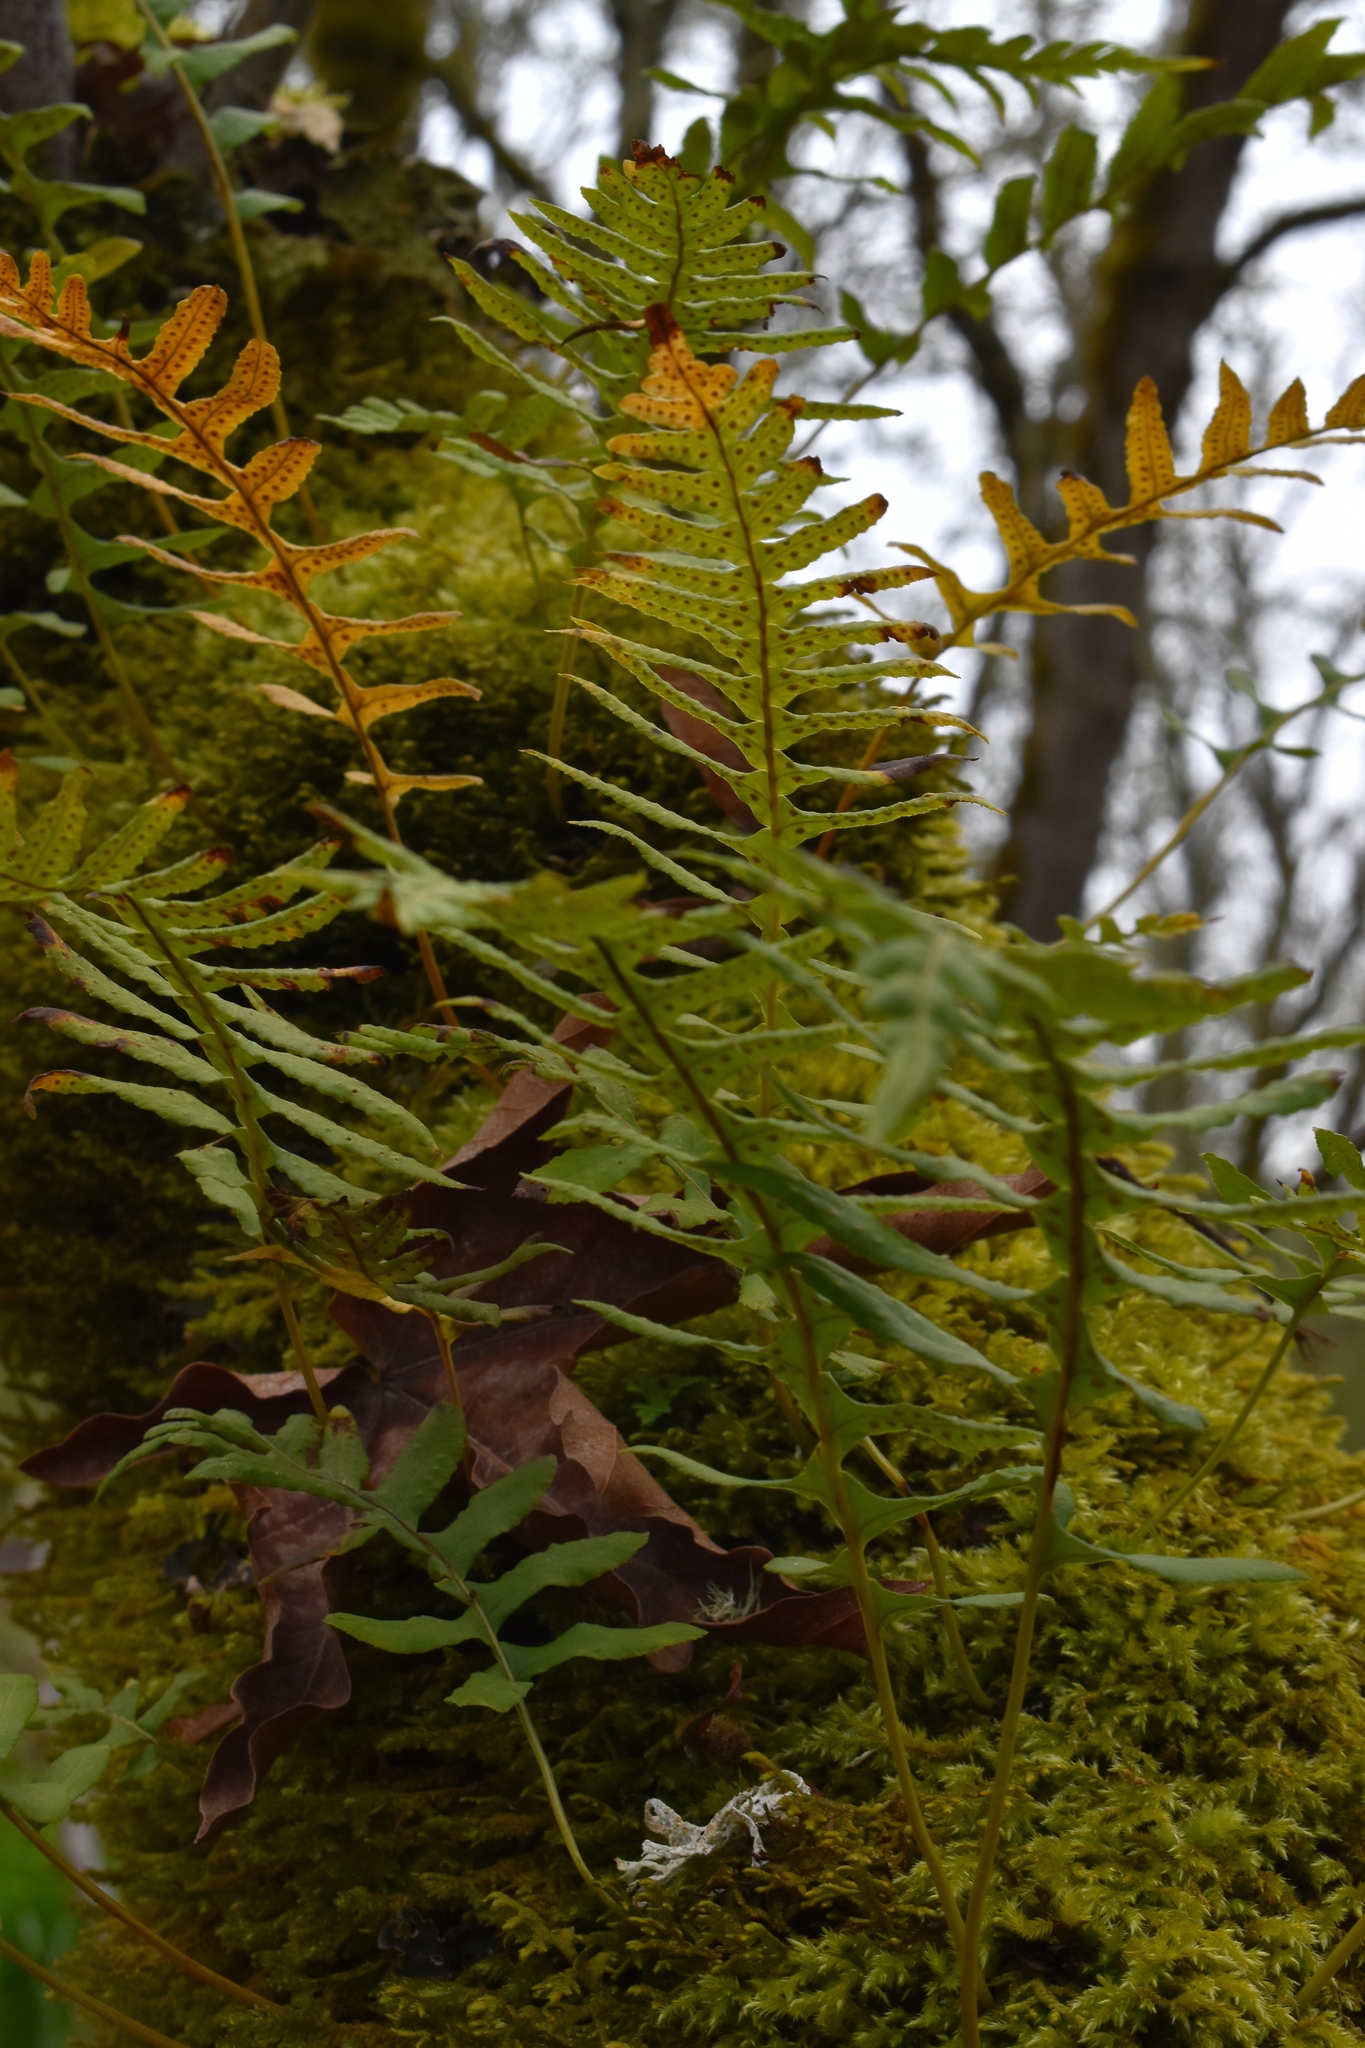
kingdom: Plantae
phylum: Tracheophyta
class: Polypodiopsida
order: Polypodiales
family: Polypodiaceae
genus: Polypodium
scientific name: Polypodium glycyrrhiza
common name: Licorice fern
